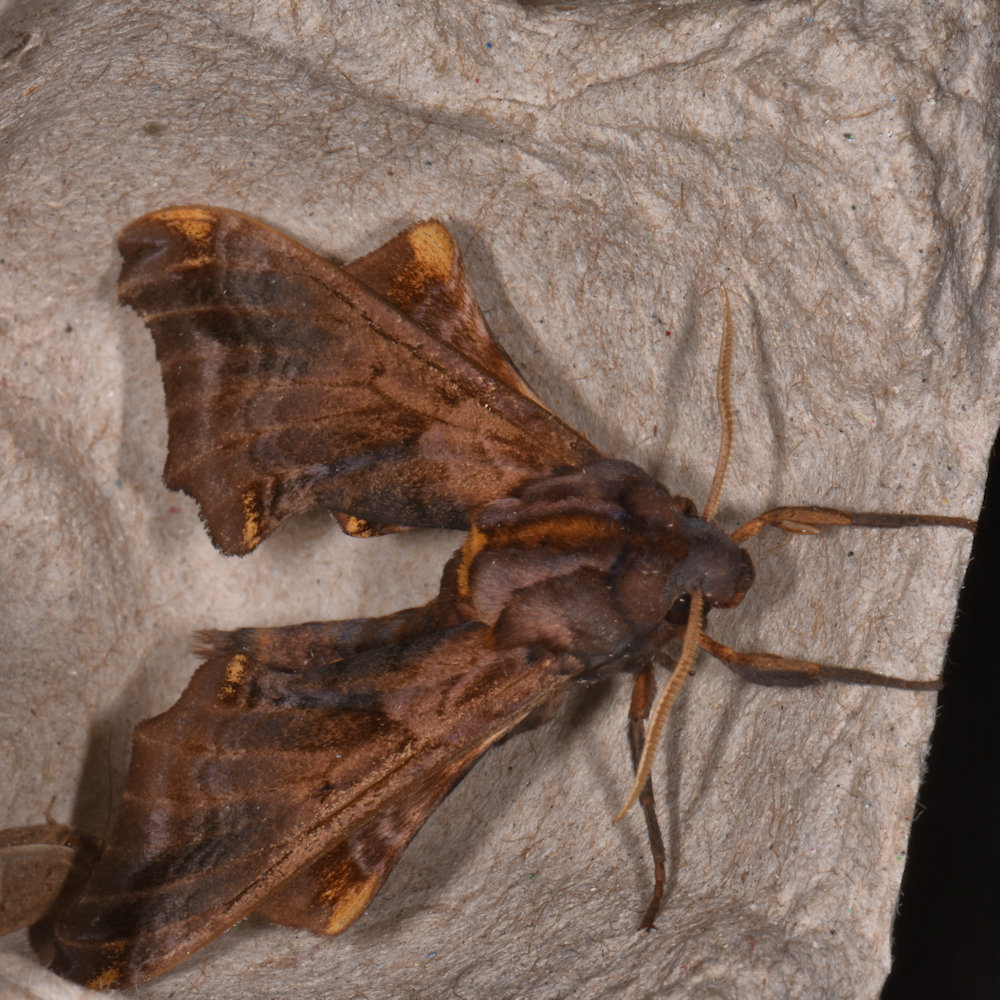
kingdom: Animalia
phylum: Arthropoda
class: Insecta
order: Lepidoptera
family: Sphingidae
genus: Paonias
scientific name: Paonias myops
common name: Small-eyed sphinx
